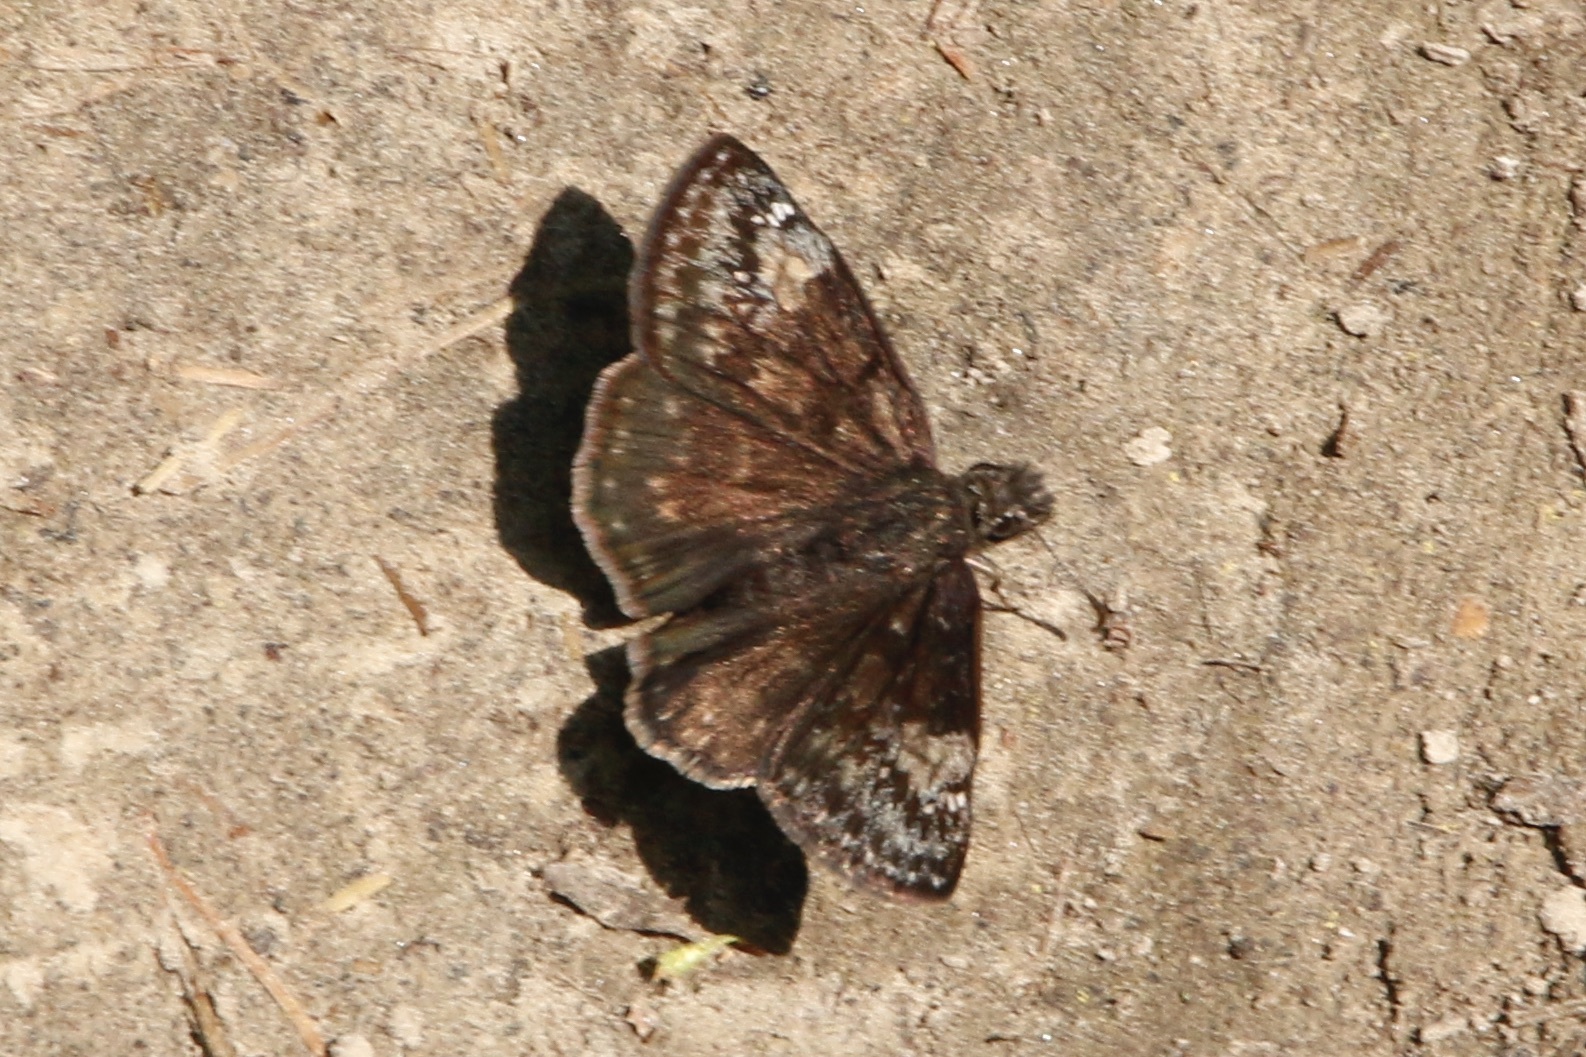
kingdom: Animalia
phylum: Arthropoda
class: Insecta
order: Lepidoptera
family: Hesperiidae
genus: Erynnis
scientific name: Erynnis baptisiae
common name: Wild indigo duskywing
